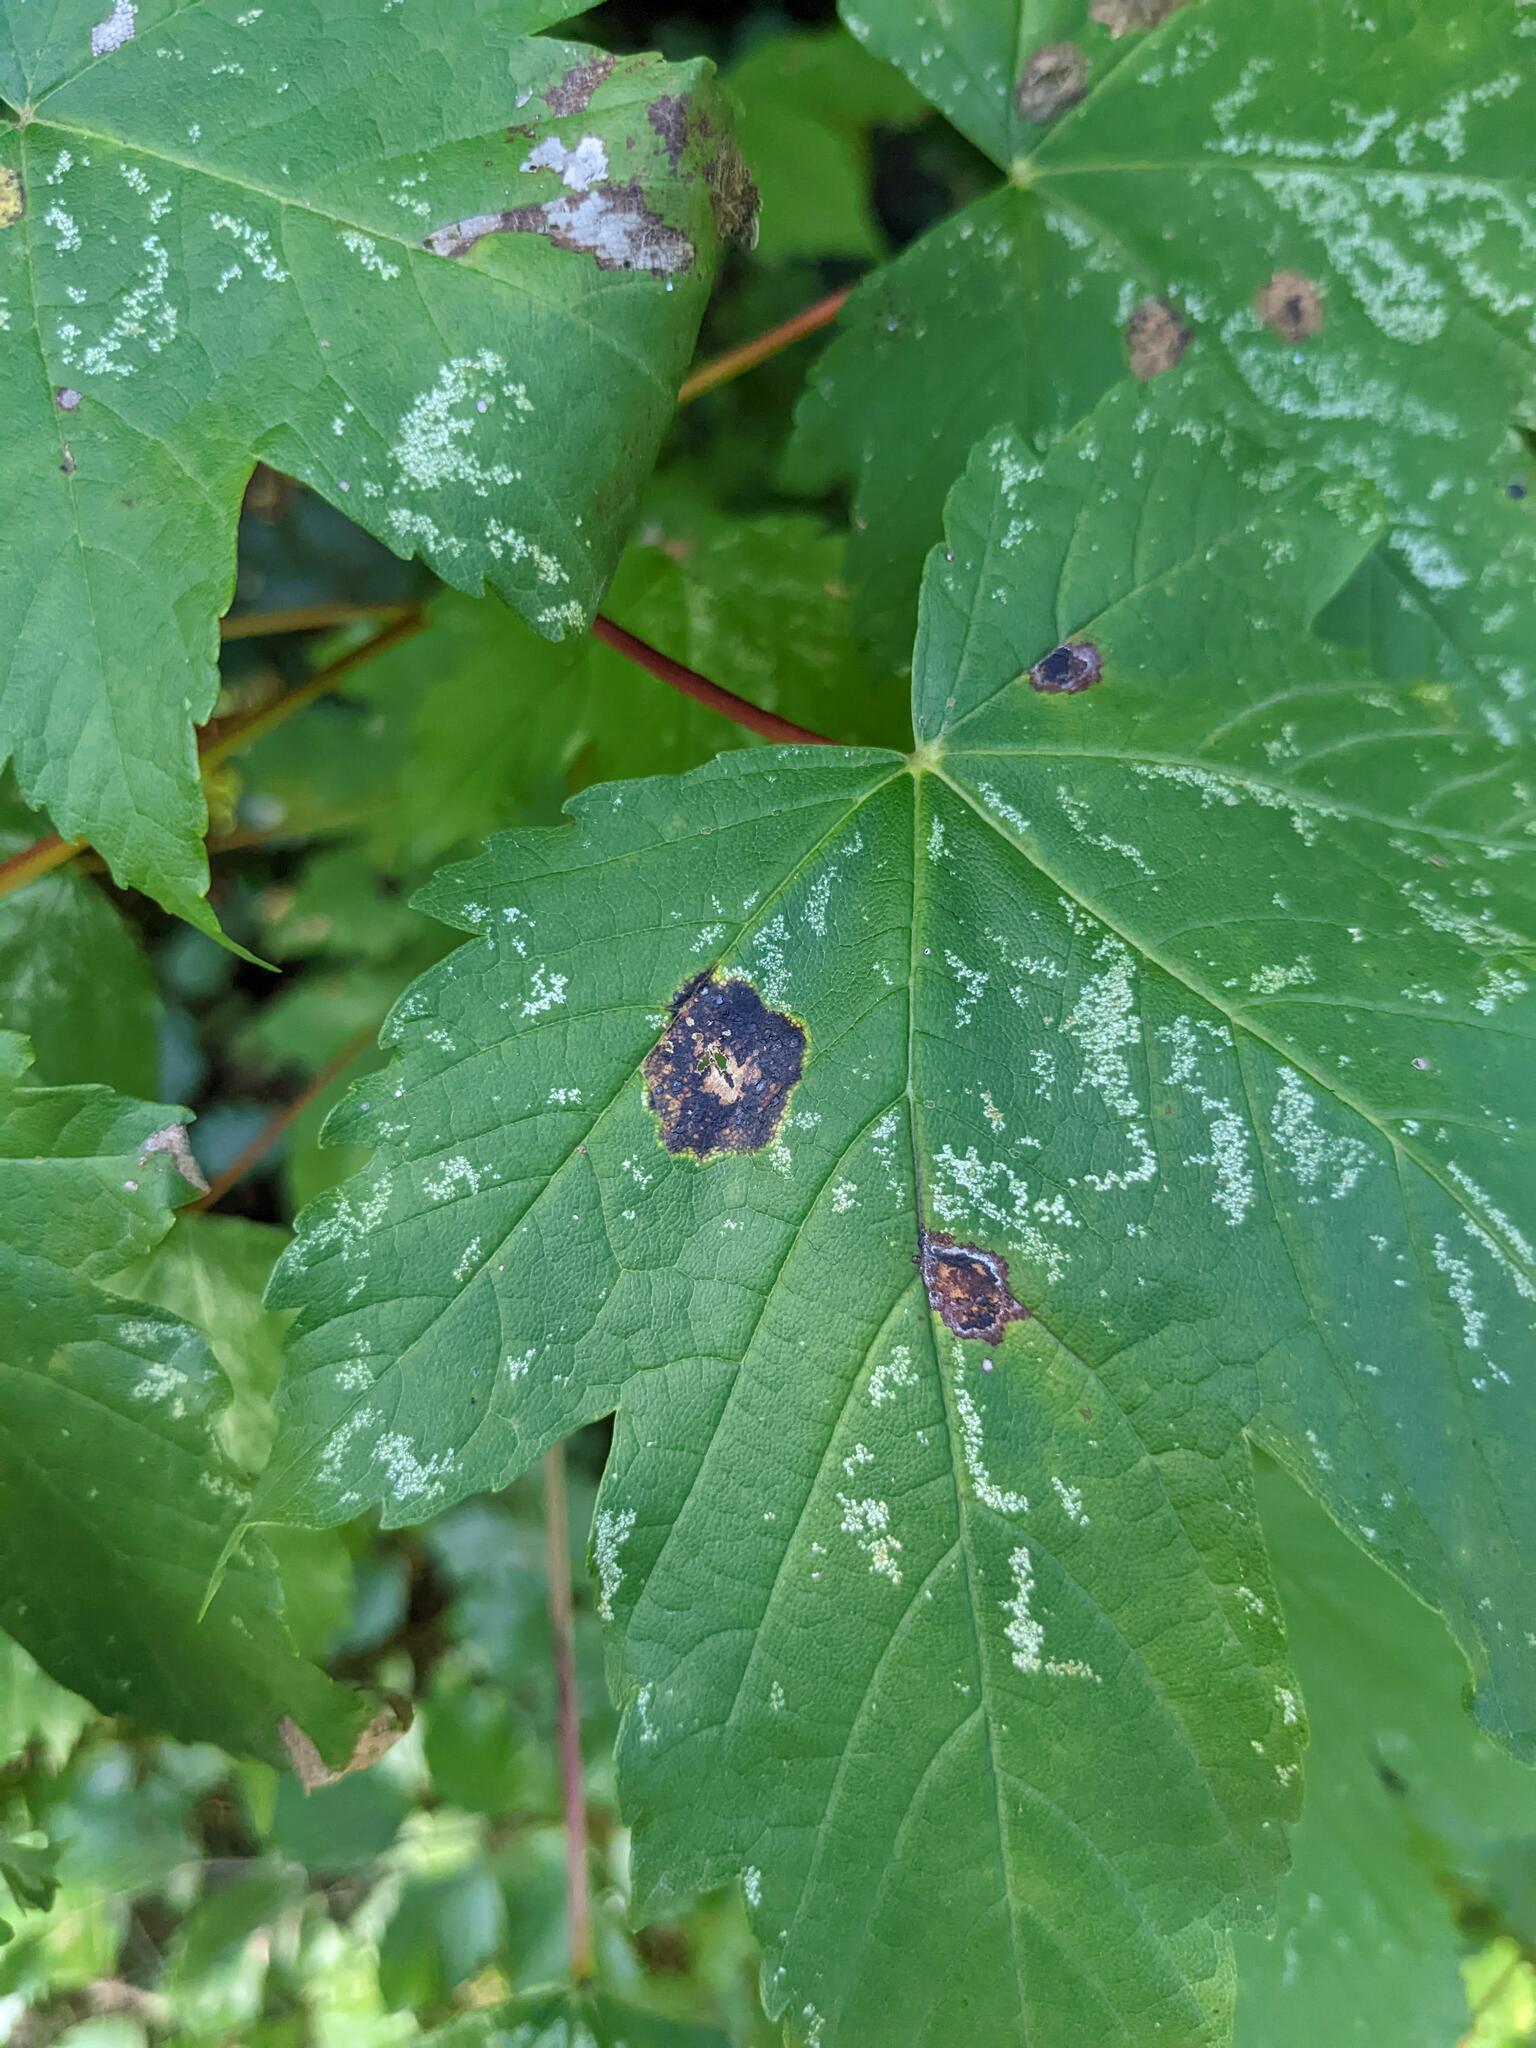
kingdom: Fungi
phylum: Ascomycota
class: Leotiomycetes
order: Rhytismatales
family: Rhytismataceae
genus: Rhytisma
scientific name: Rhytisma acerinum
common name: European tar spot
